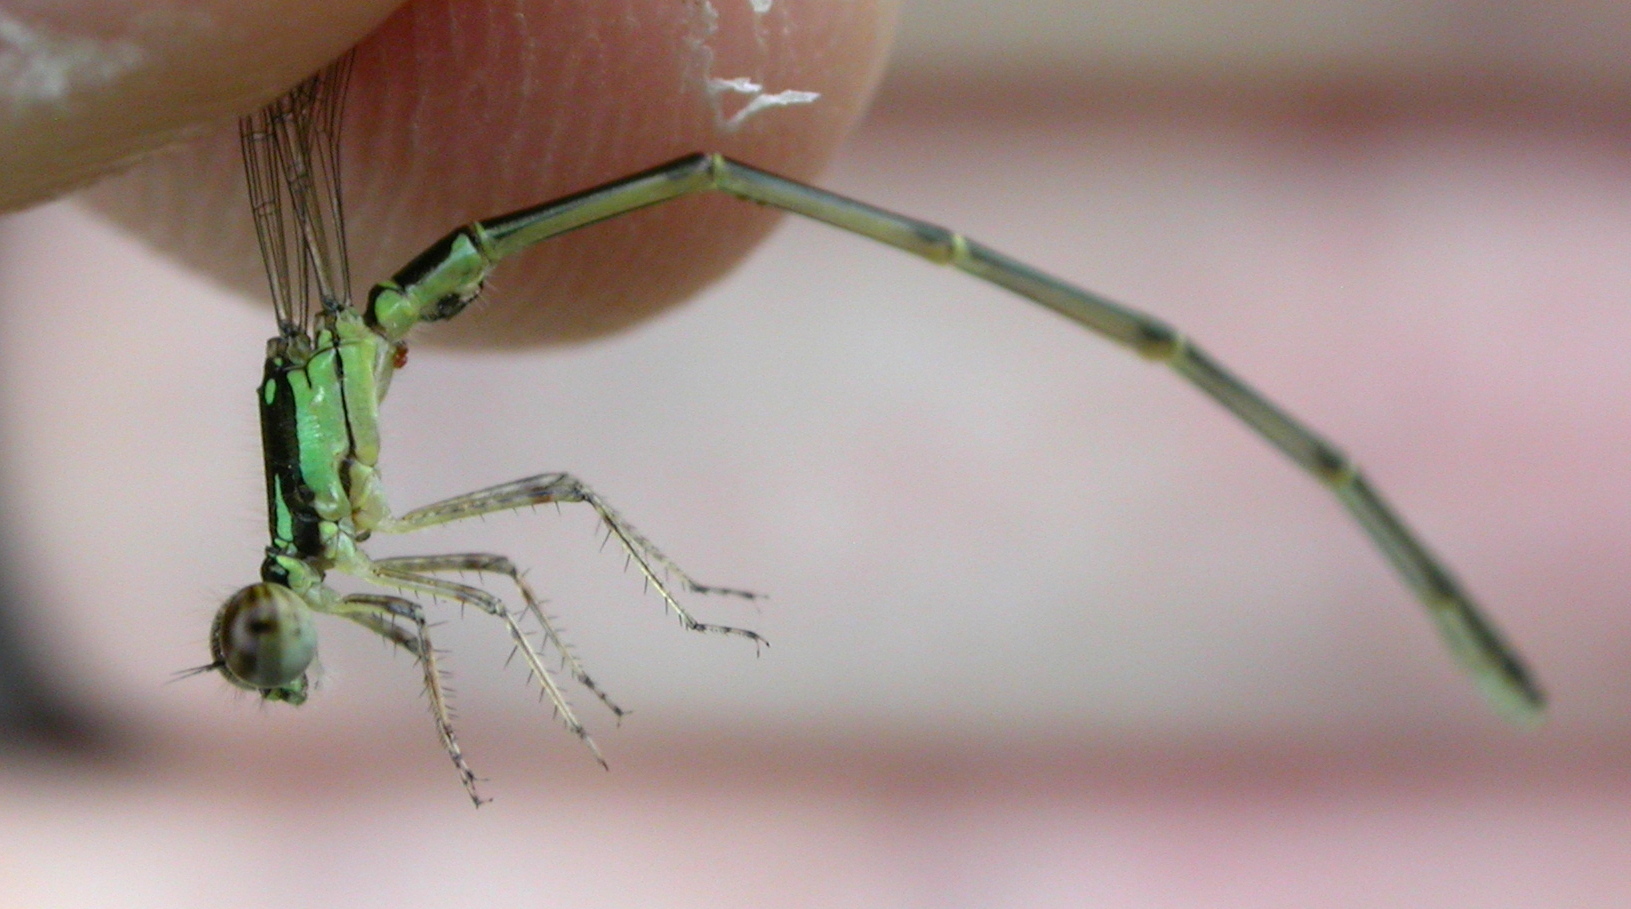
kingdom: Animalia
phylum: Arthropoda
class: Insecta
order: Odonata
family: Coenagrionidae
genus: Ischnura
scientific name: Ischnura posita
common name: Fragile forktail
